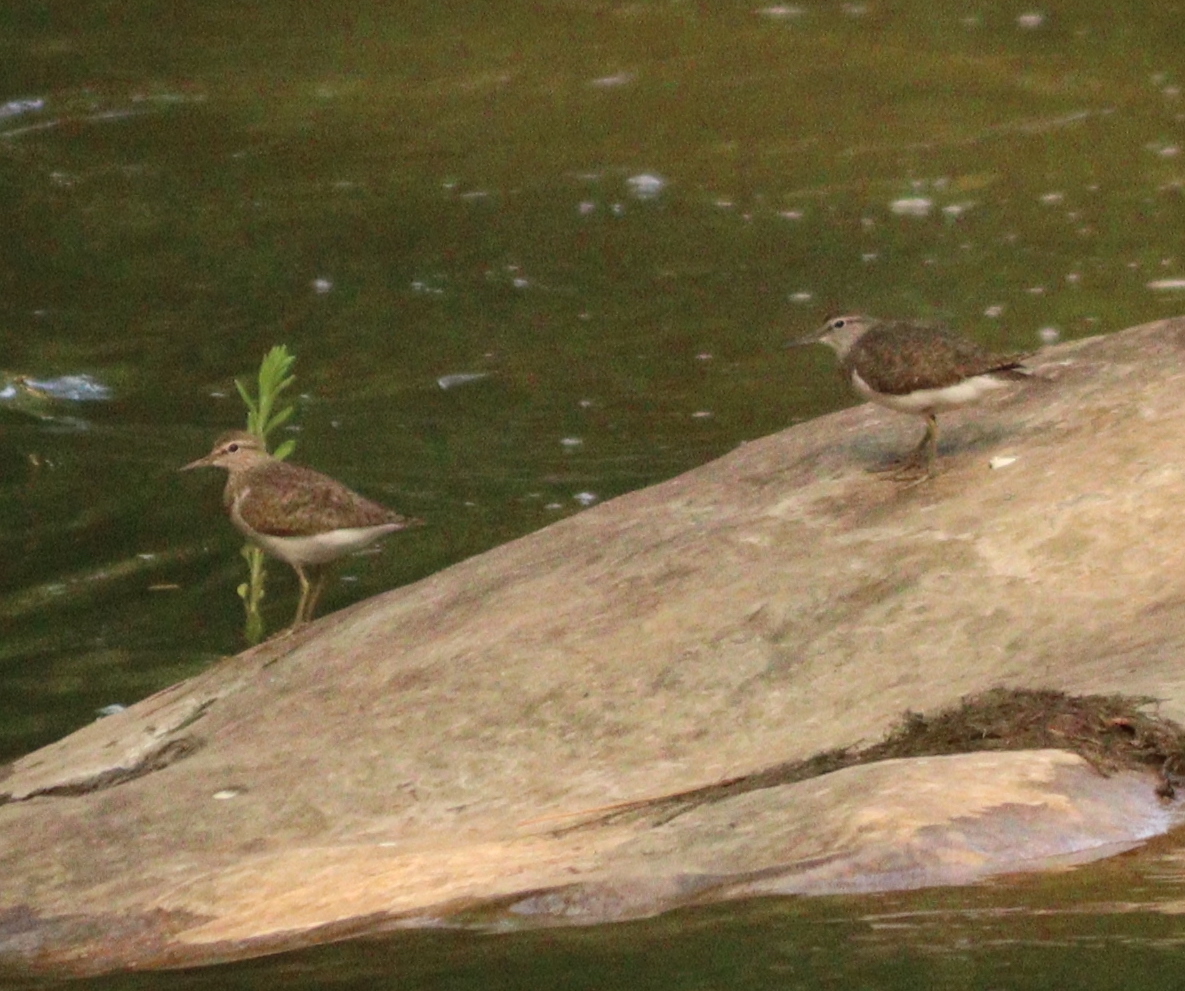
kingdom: Animalia
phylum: Chordata
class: Aves
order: Charadriiformes
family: Scolopacidae
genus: Actitis
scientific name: Actitis hypoleucos
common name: Common sandpiper
